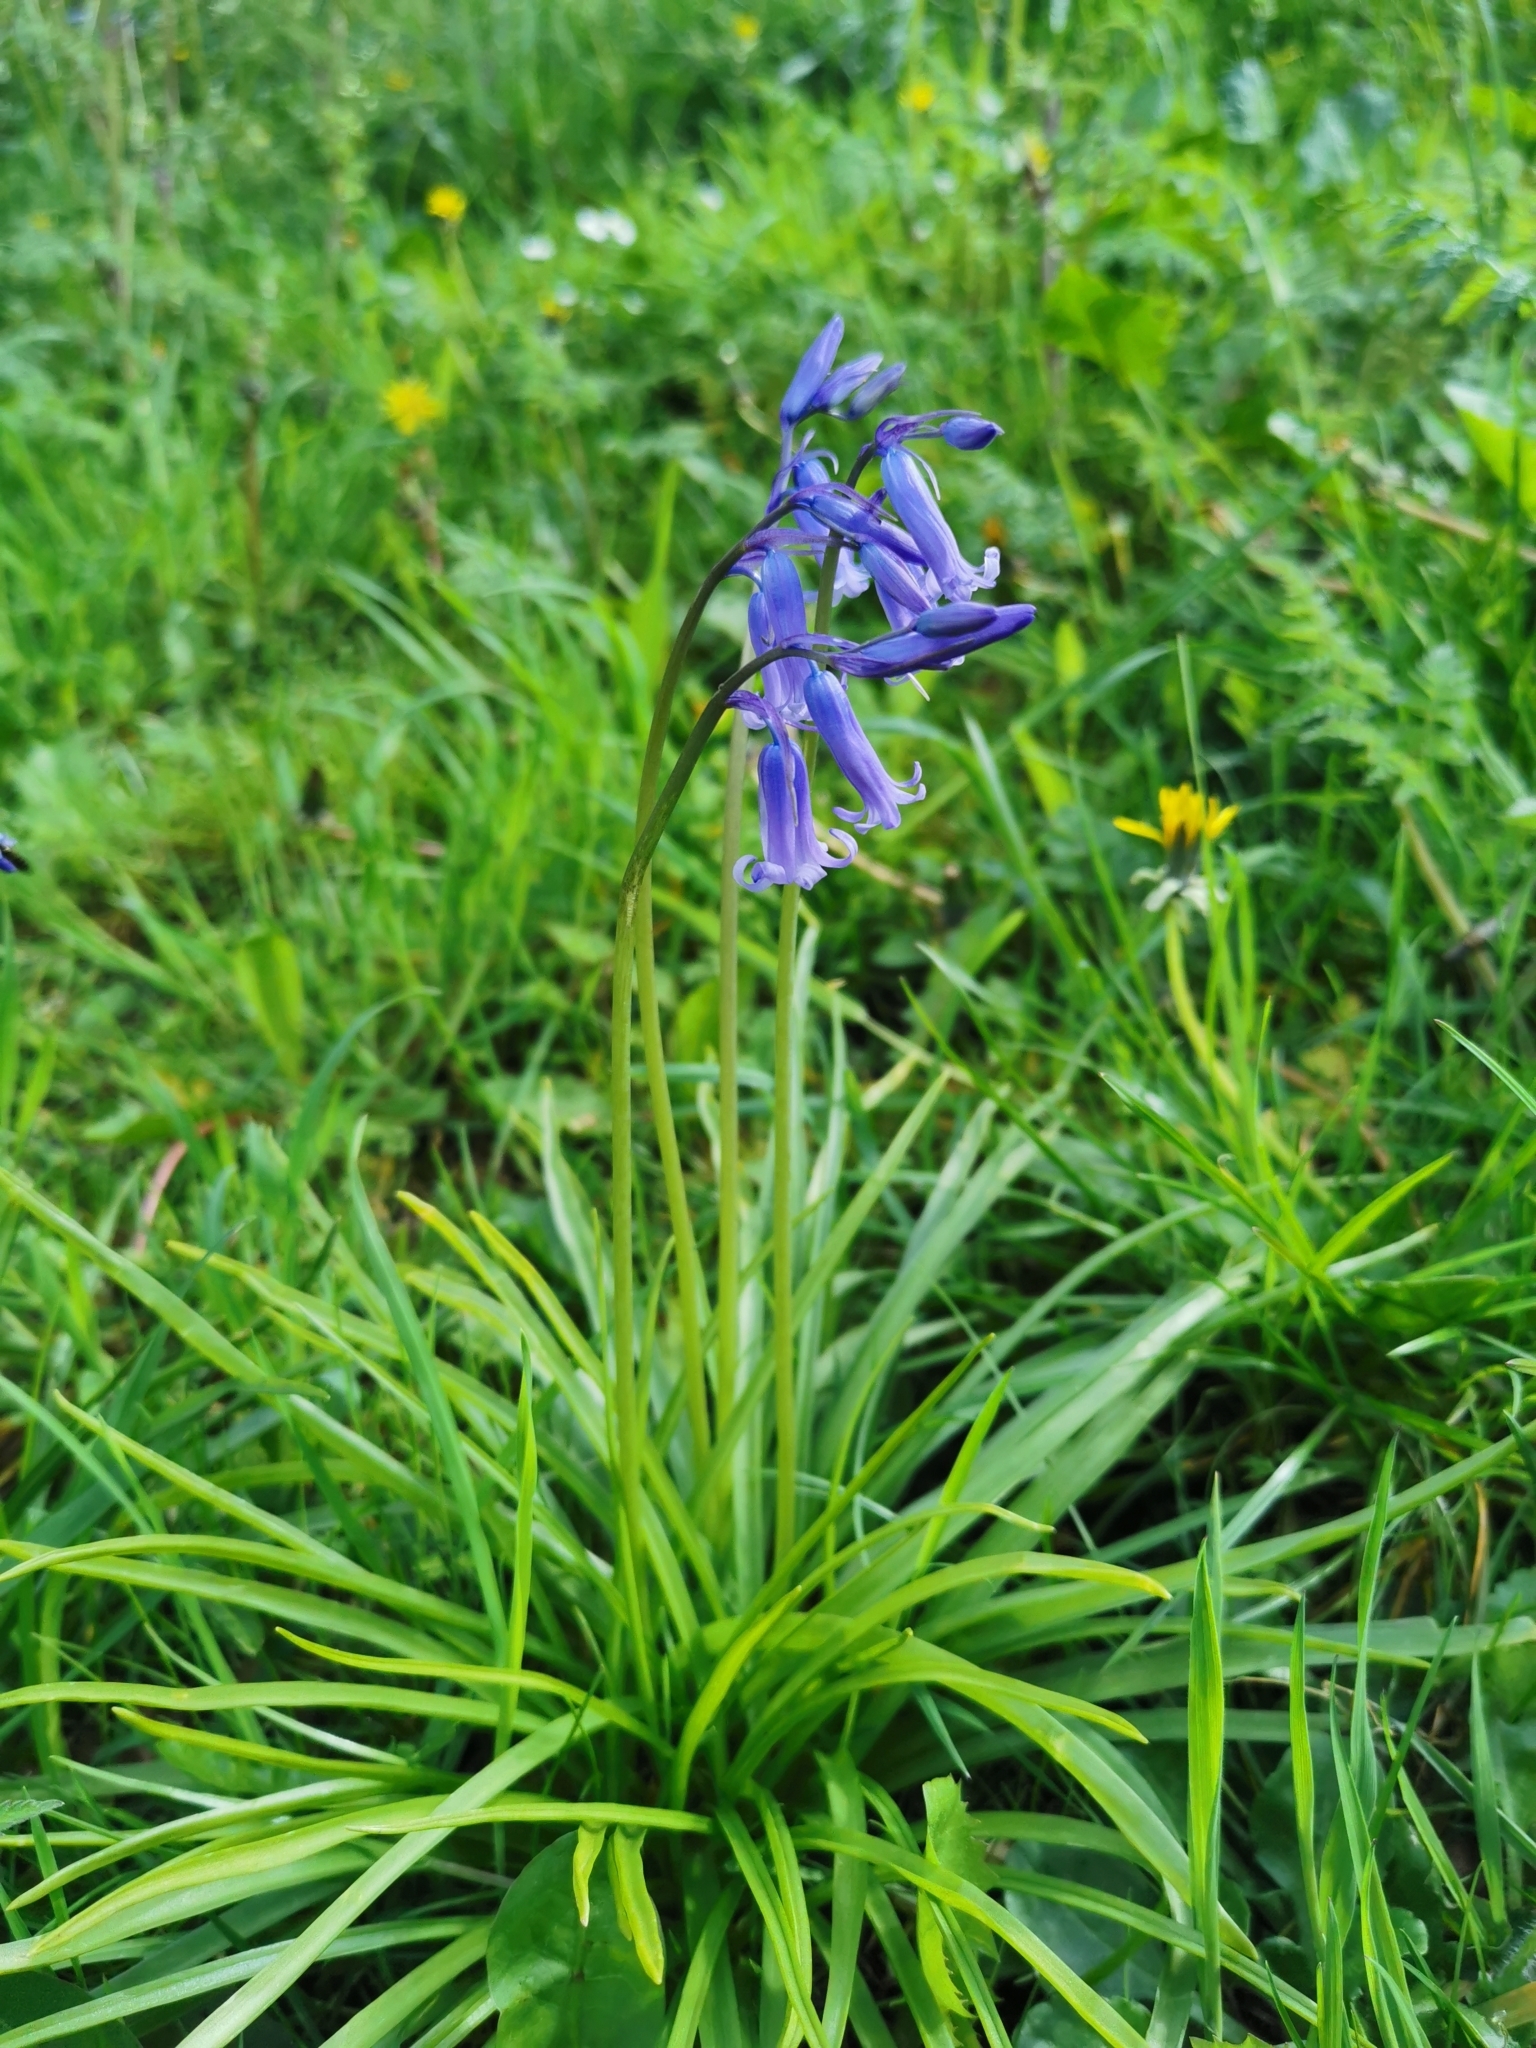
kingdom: Plantae
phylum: Tracheophyta
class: Liliopsida
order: Asparagales
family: Asparagaceae
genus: Hyacinthoides
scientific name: Hyacinthoides non-scripta
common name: Bluebell
